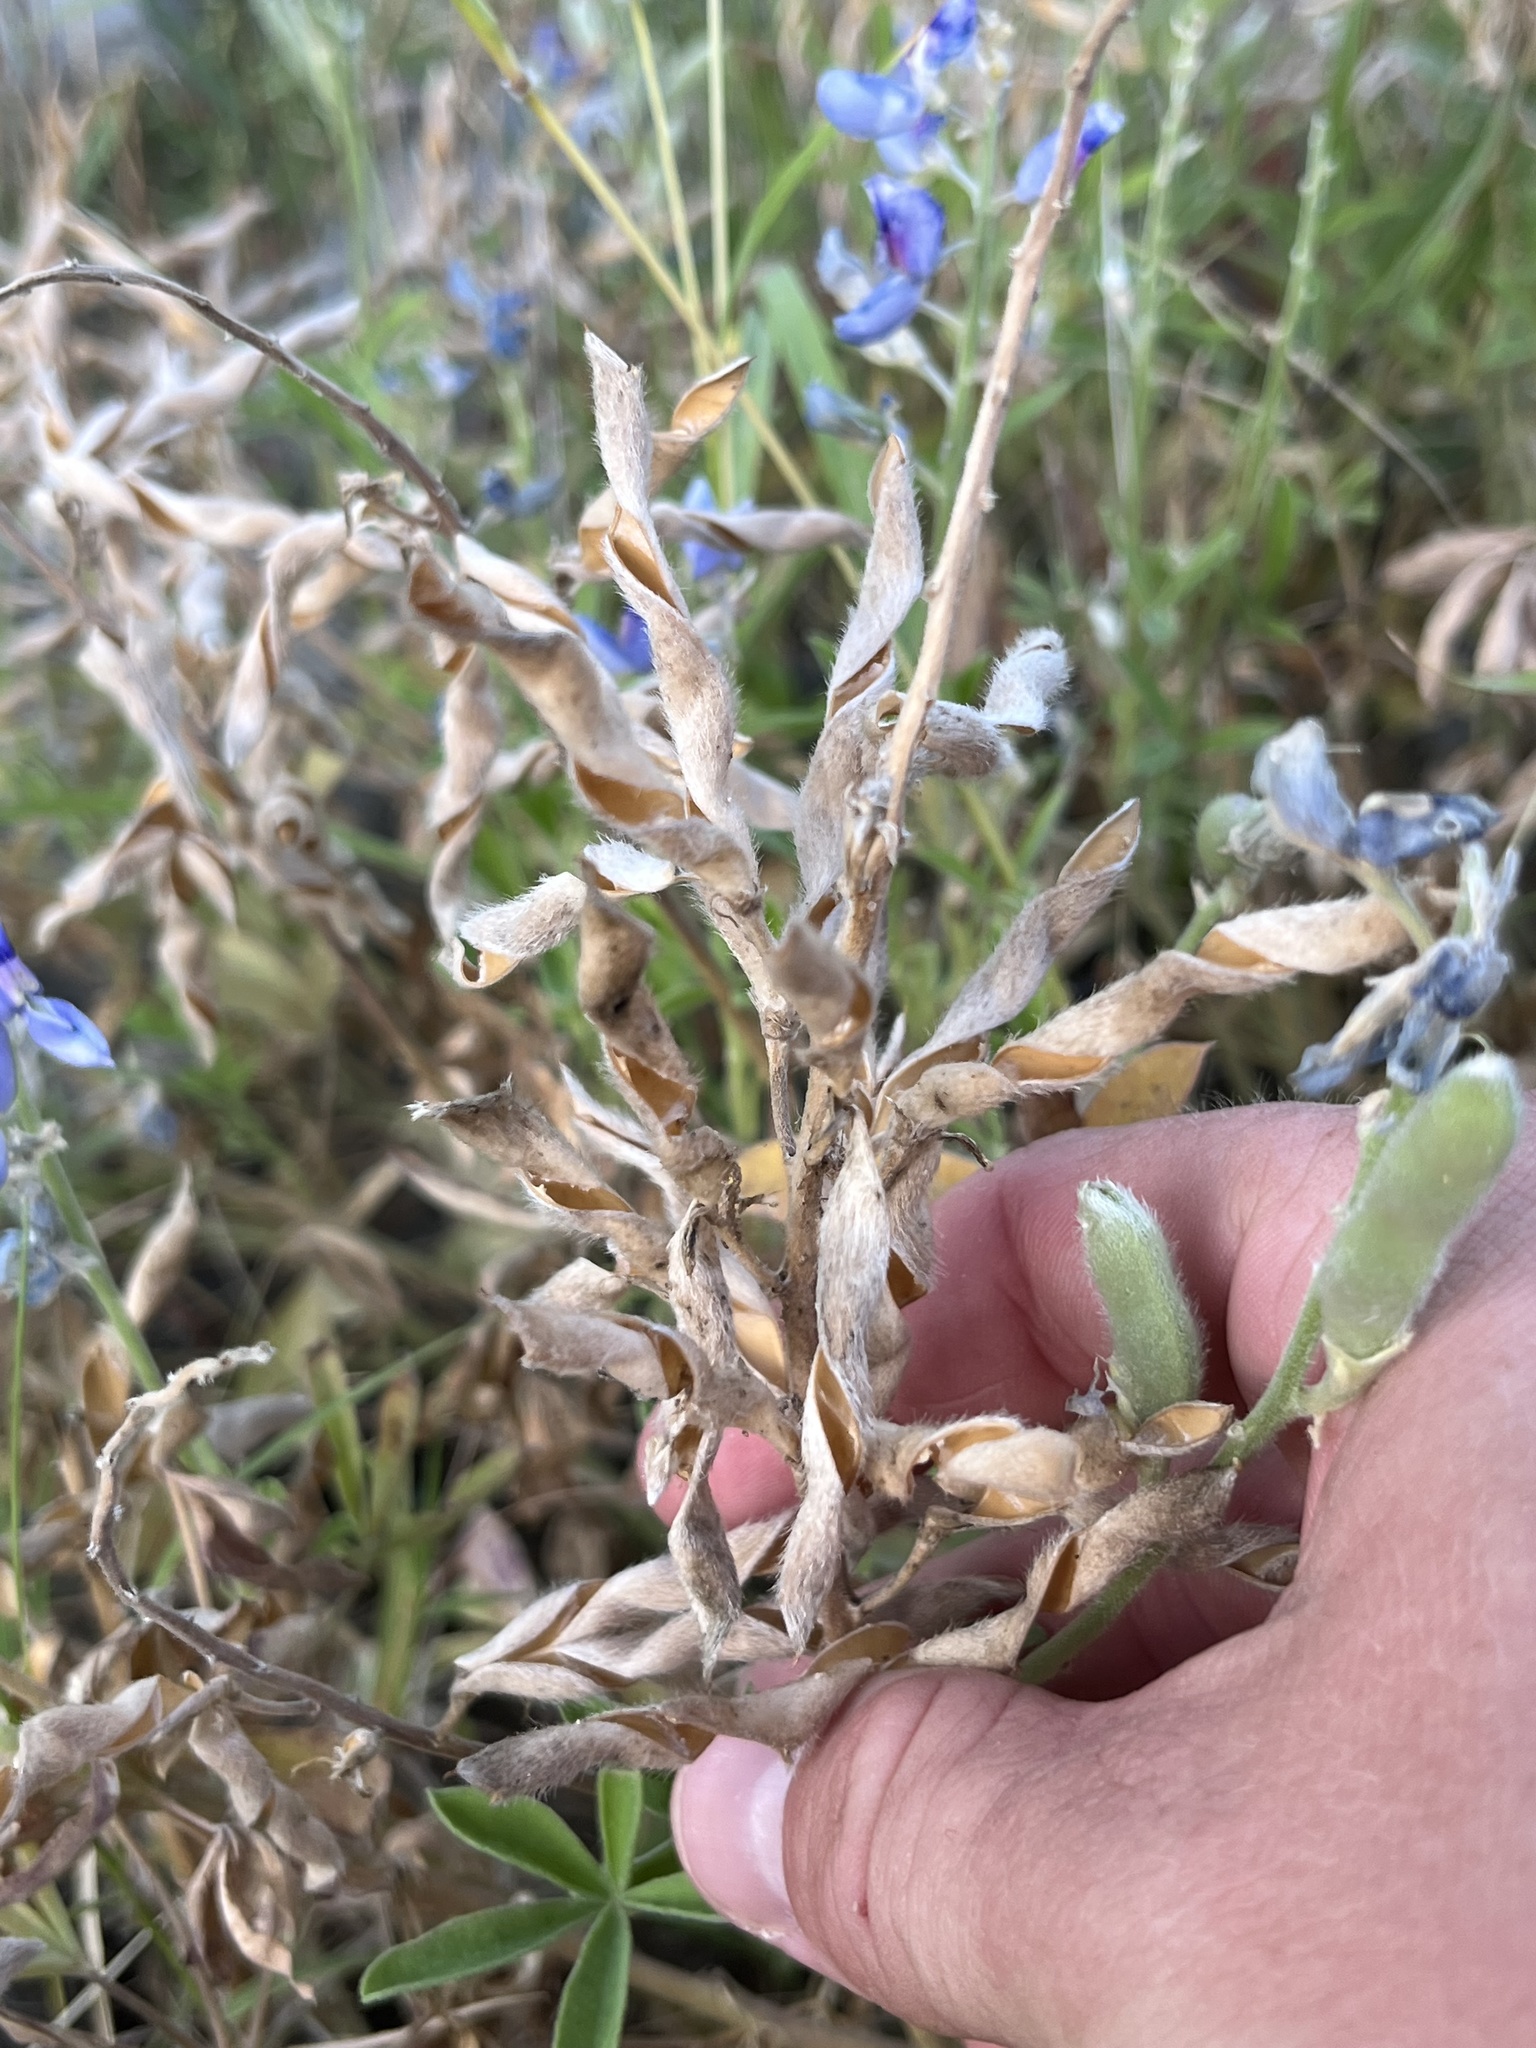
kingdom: Plantae
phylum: Tracheophyta
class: Magnoliopsida
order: Fabales
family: Fabaceae
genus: Lupinus
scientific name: Lupinus texensis
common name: Texas bluebonnet
